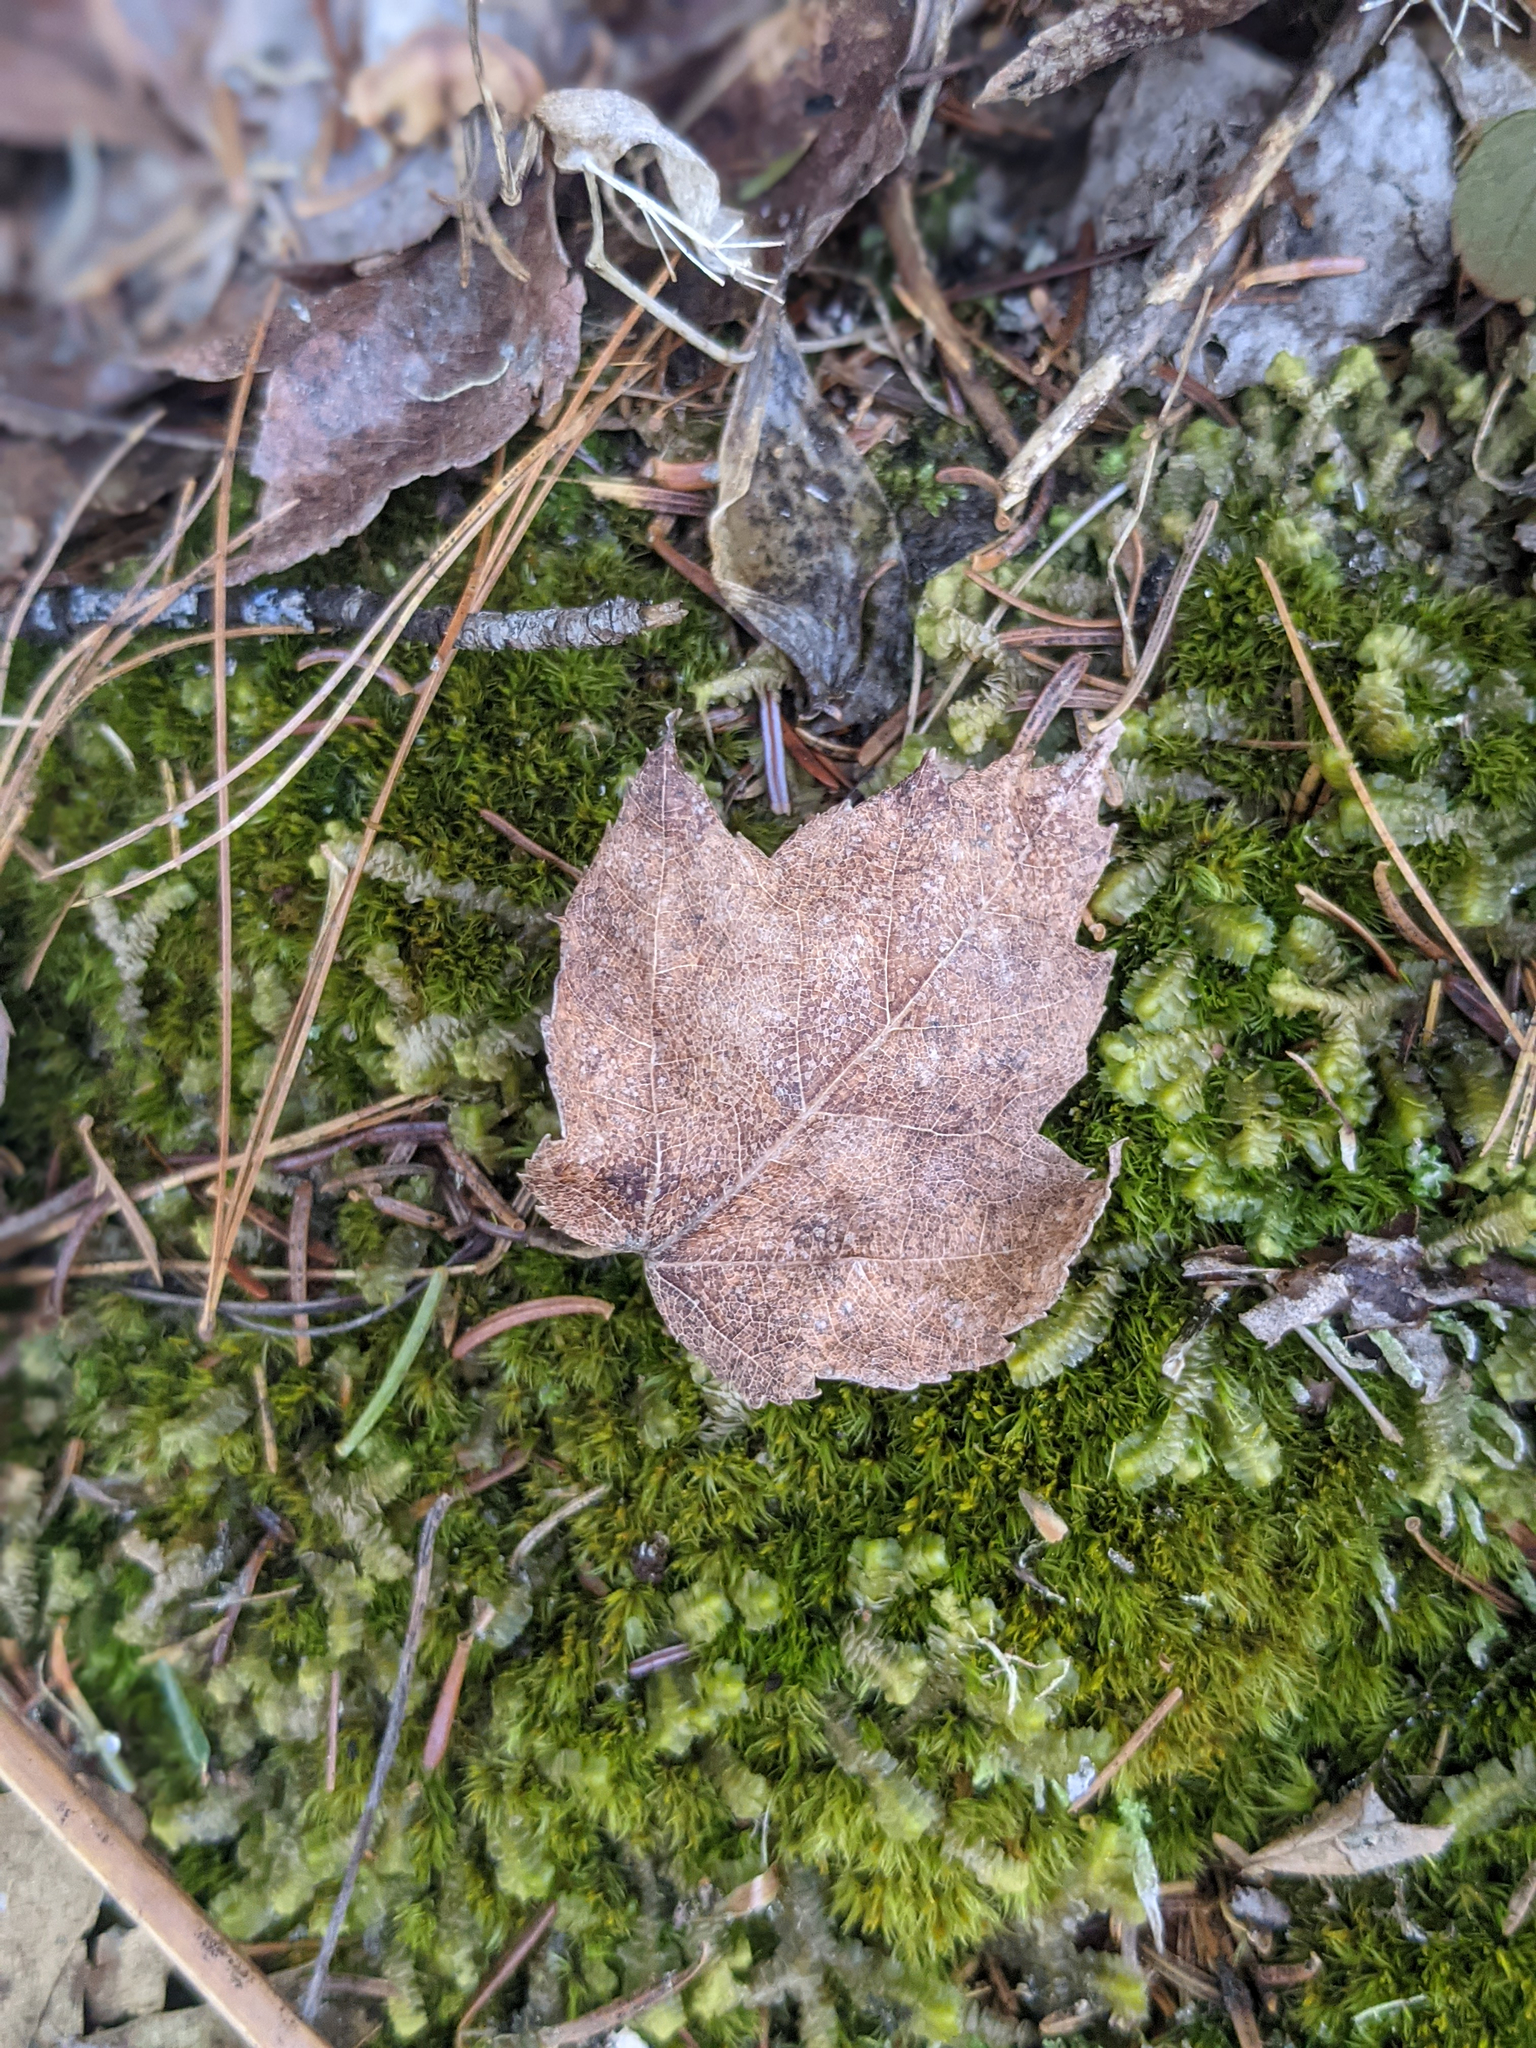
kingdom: Plantae
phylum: Tracheophyta
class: Magnoliopsida
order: Sapindales
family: Sapindaceae
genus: Acer
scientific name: Acer rubrum
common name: Red maple
